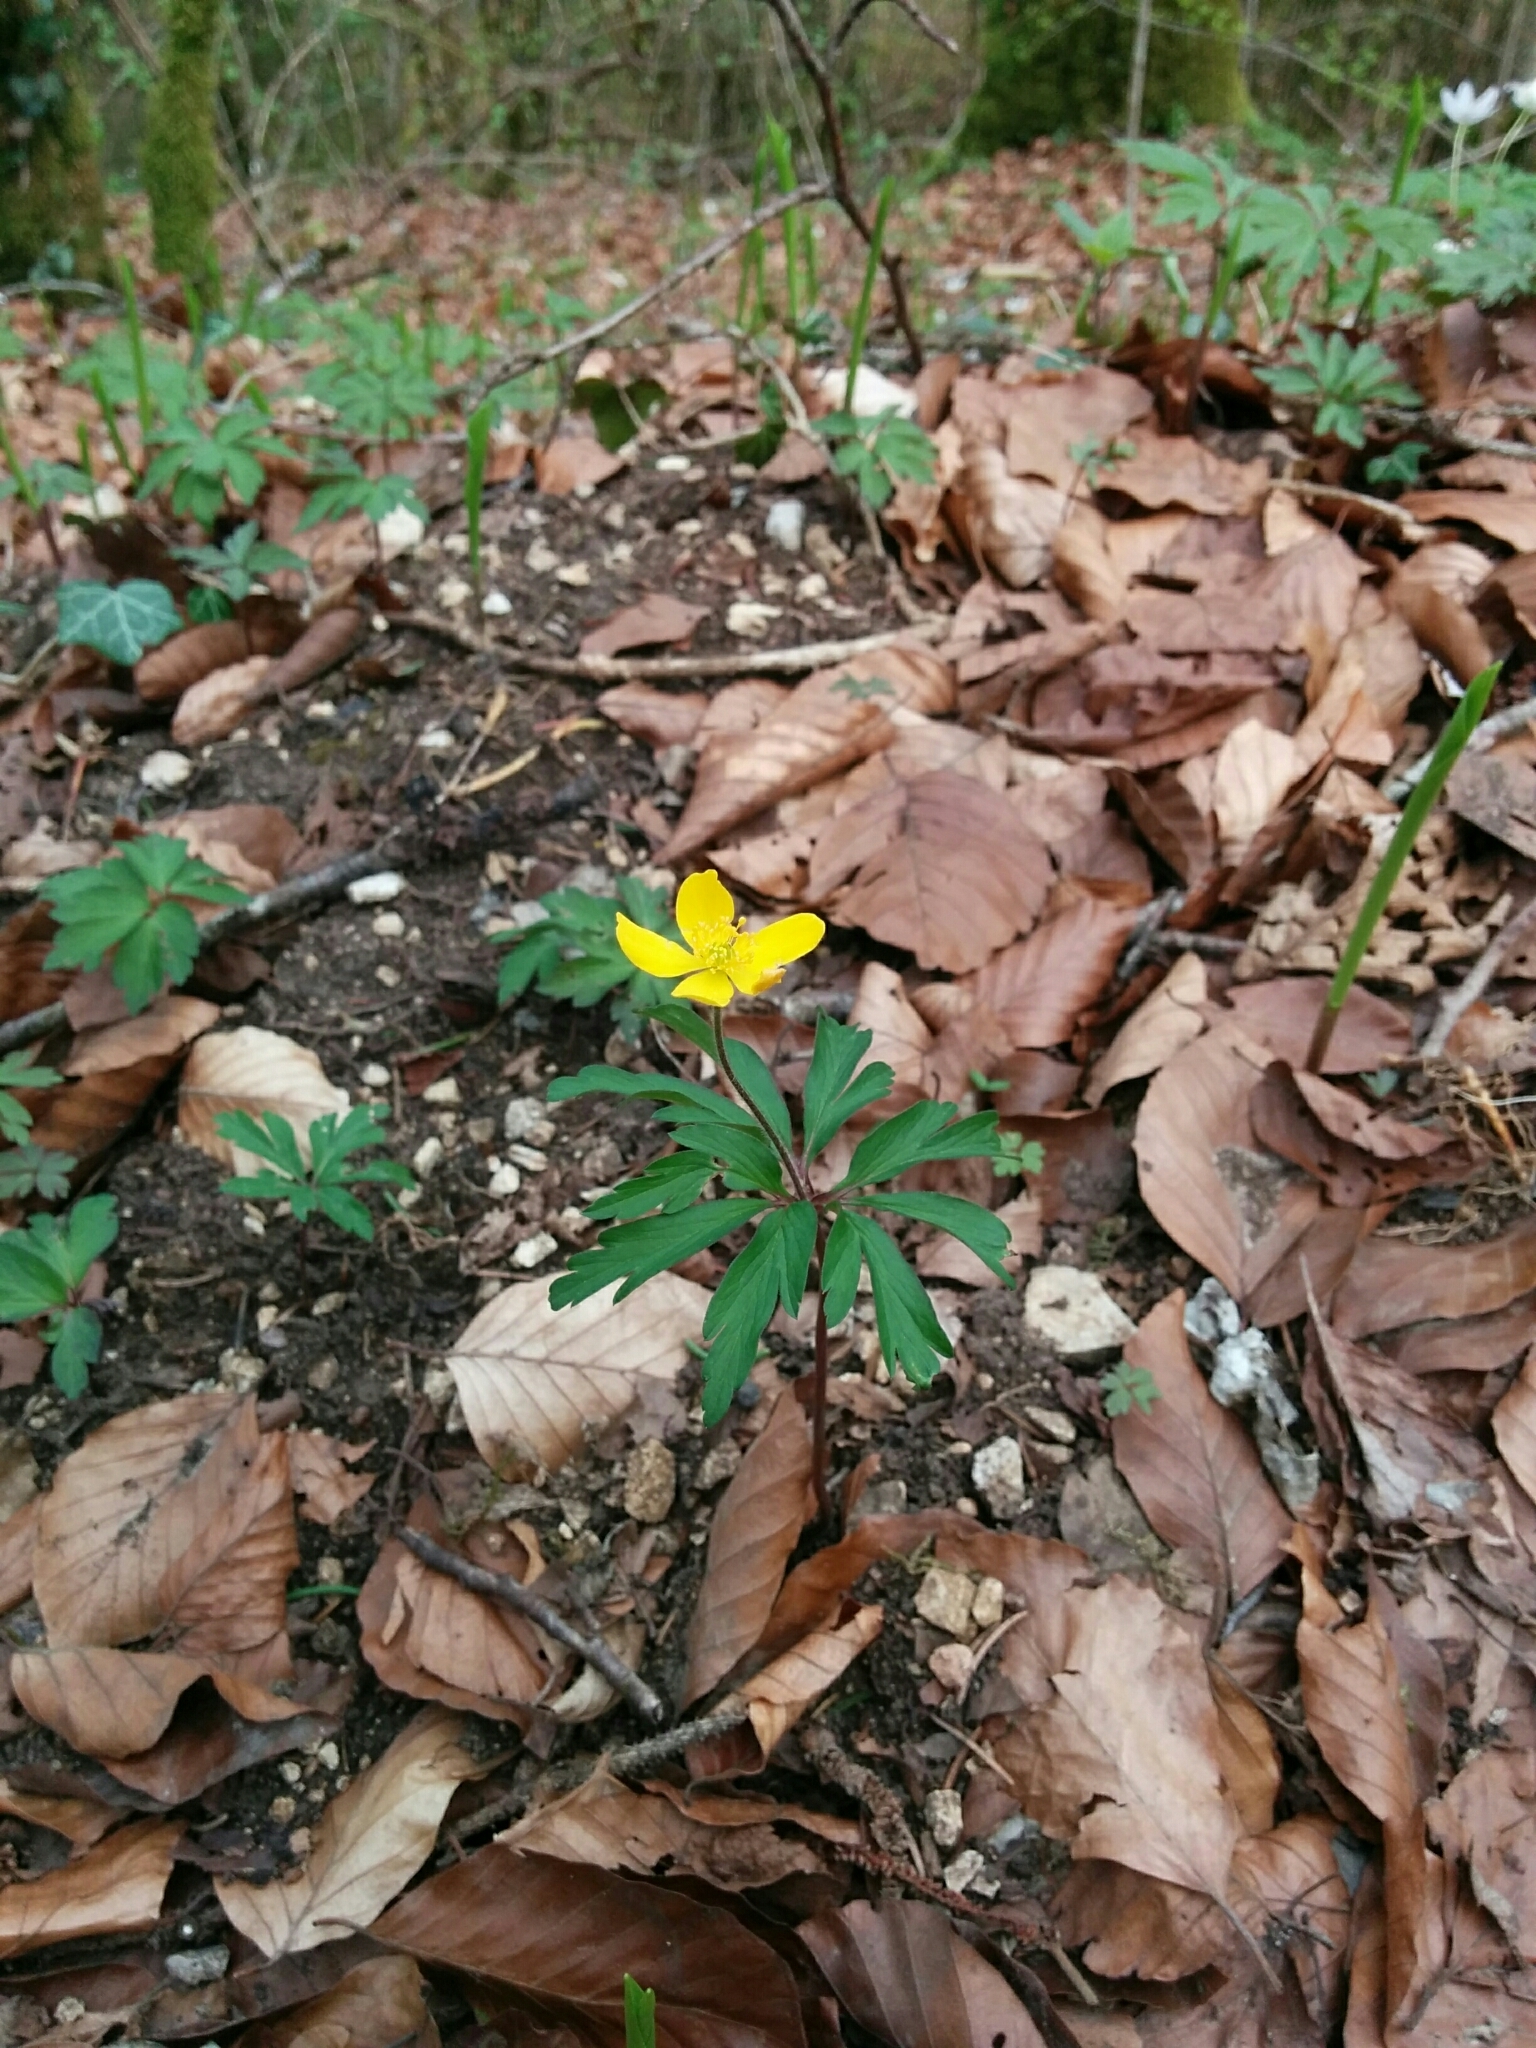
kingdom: Plantae
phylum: Tracheophyta
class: Magnoliopsida
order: Ranunculales
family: Ranunculaceae
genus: Anemone
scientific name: Anemone ranunculoides
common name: Yellow anemone
